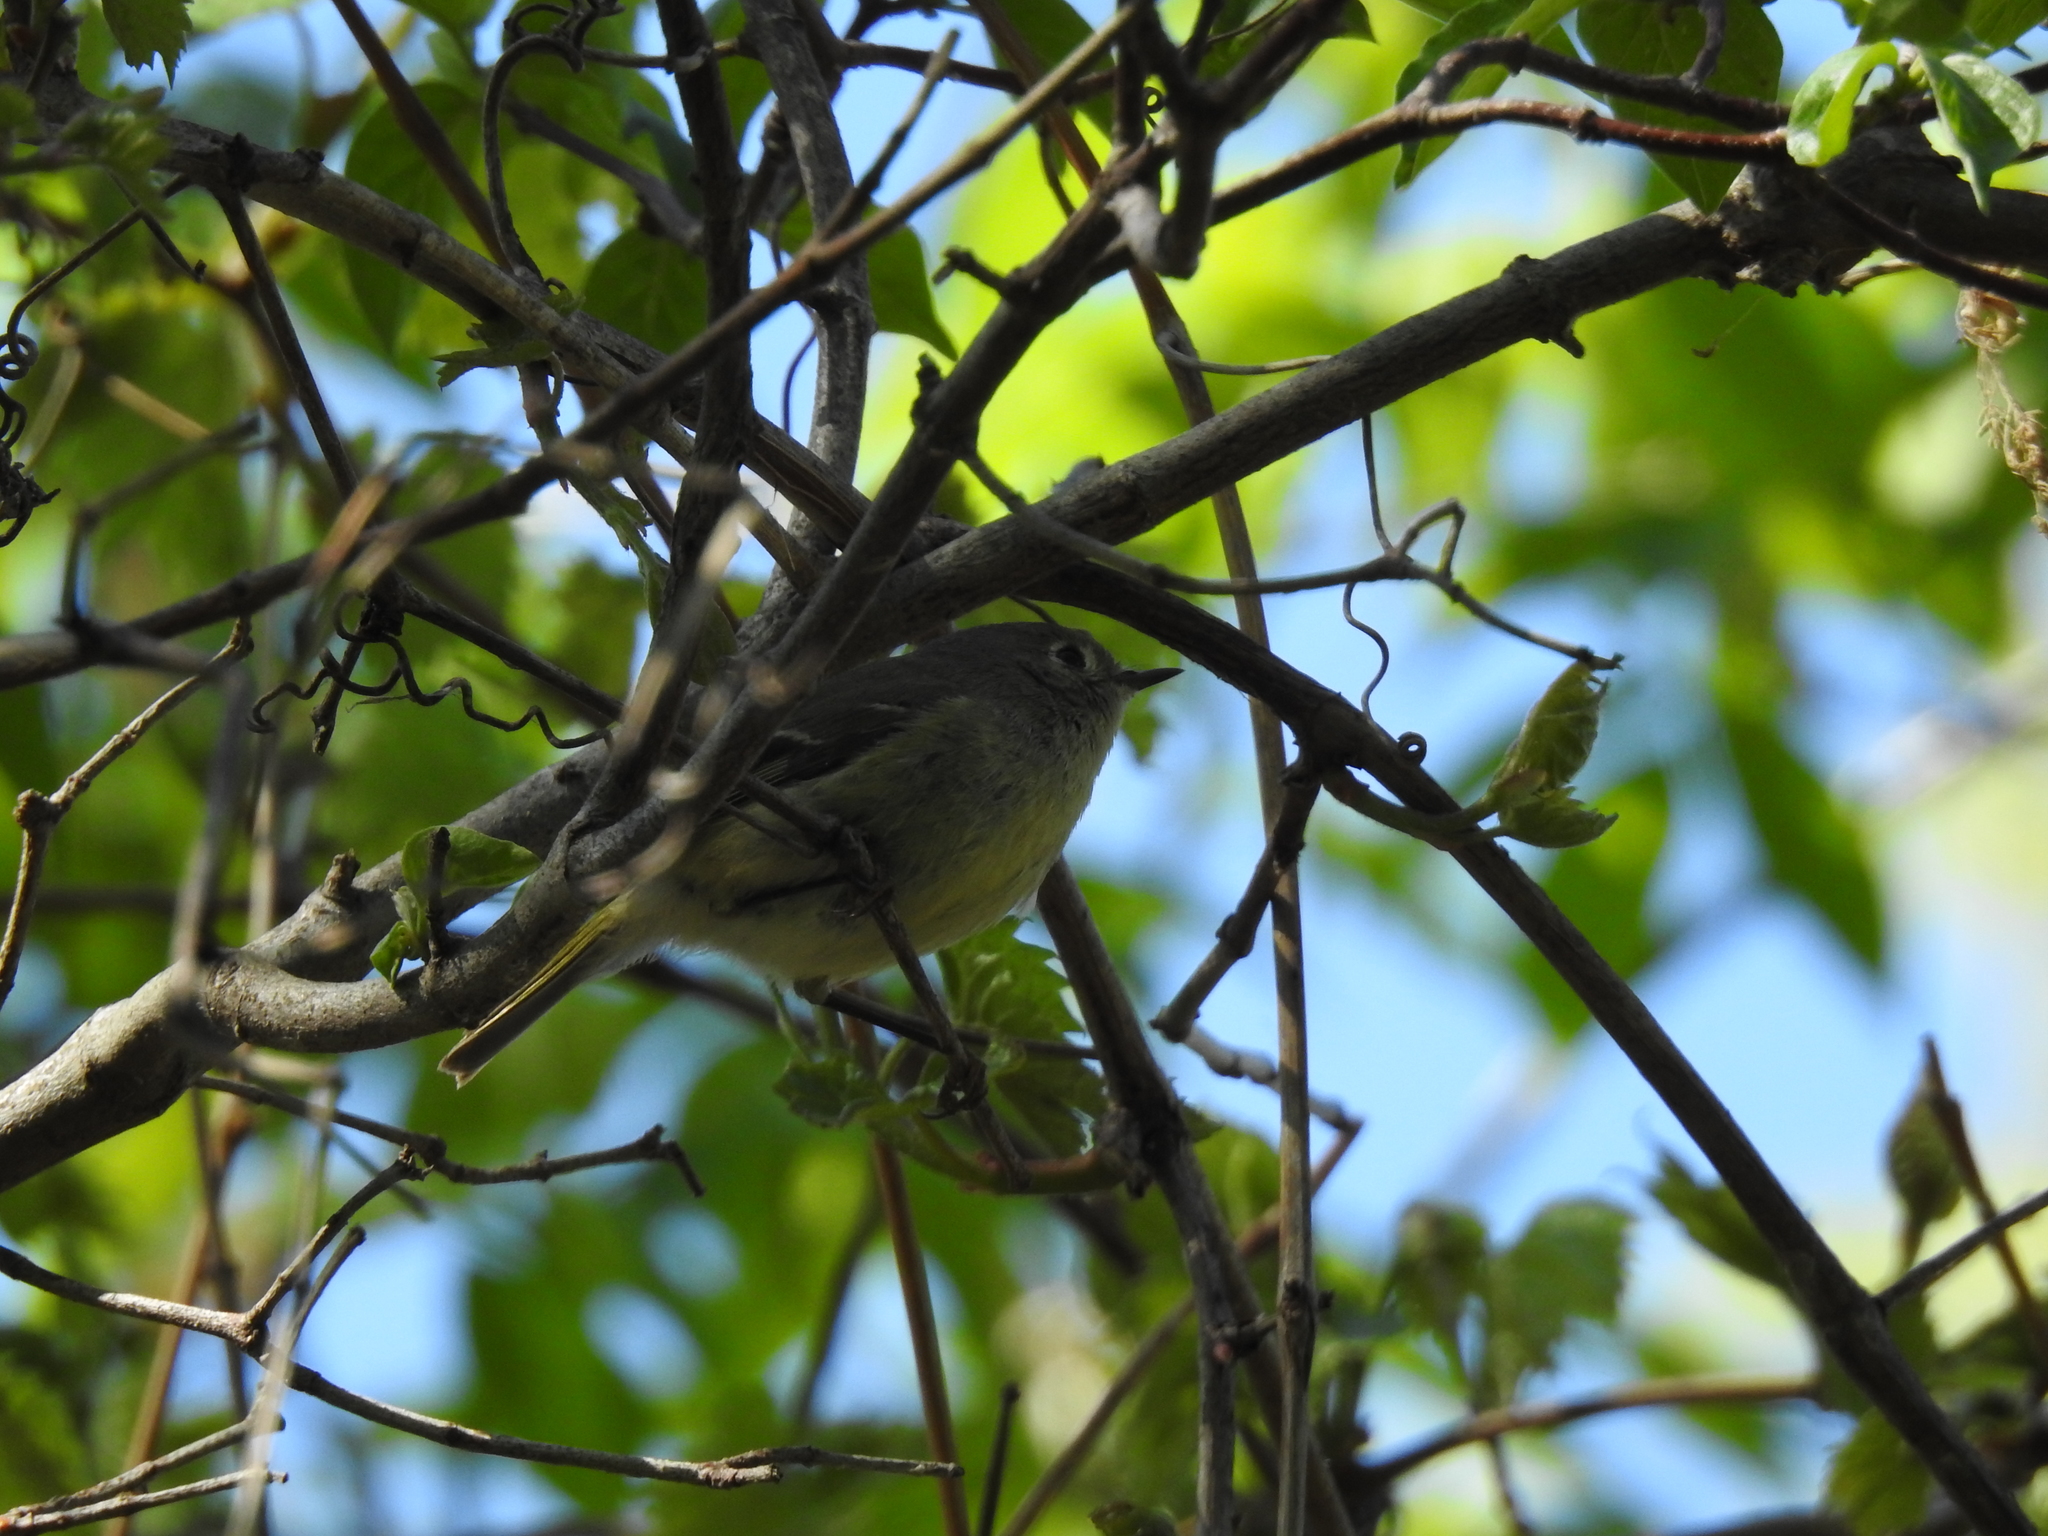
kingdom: Animalia
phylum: Chordata
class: Aves
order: Passeriformes
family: Regulidae
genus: Regulus
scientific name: Regulus calendula
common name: Ruby-crowned kinglet
